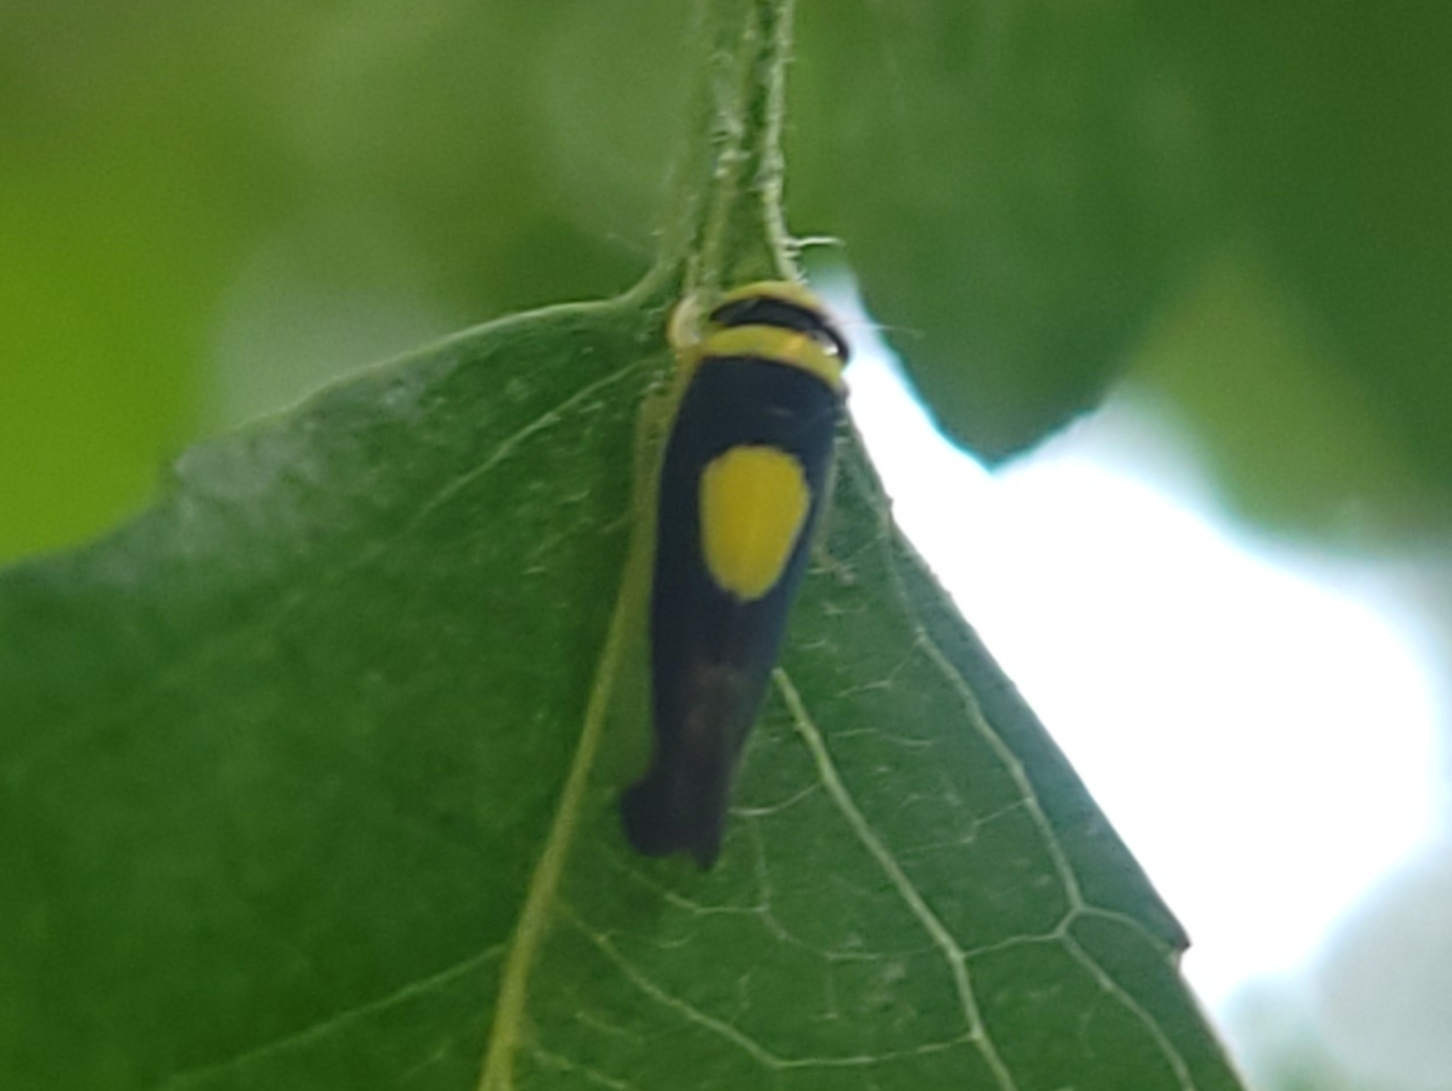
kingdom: Animalia
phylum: Arthropoda
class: Insecta
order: Hemiptera
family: Cicadellidae
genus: Colladonus
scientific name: Colladonus clitellarius
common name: The saddleback leafhopper
